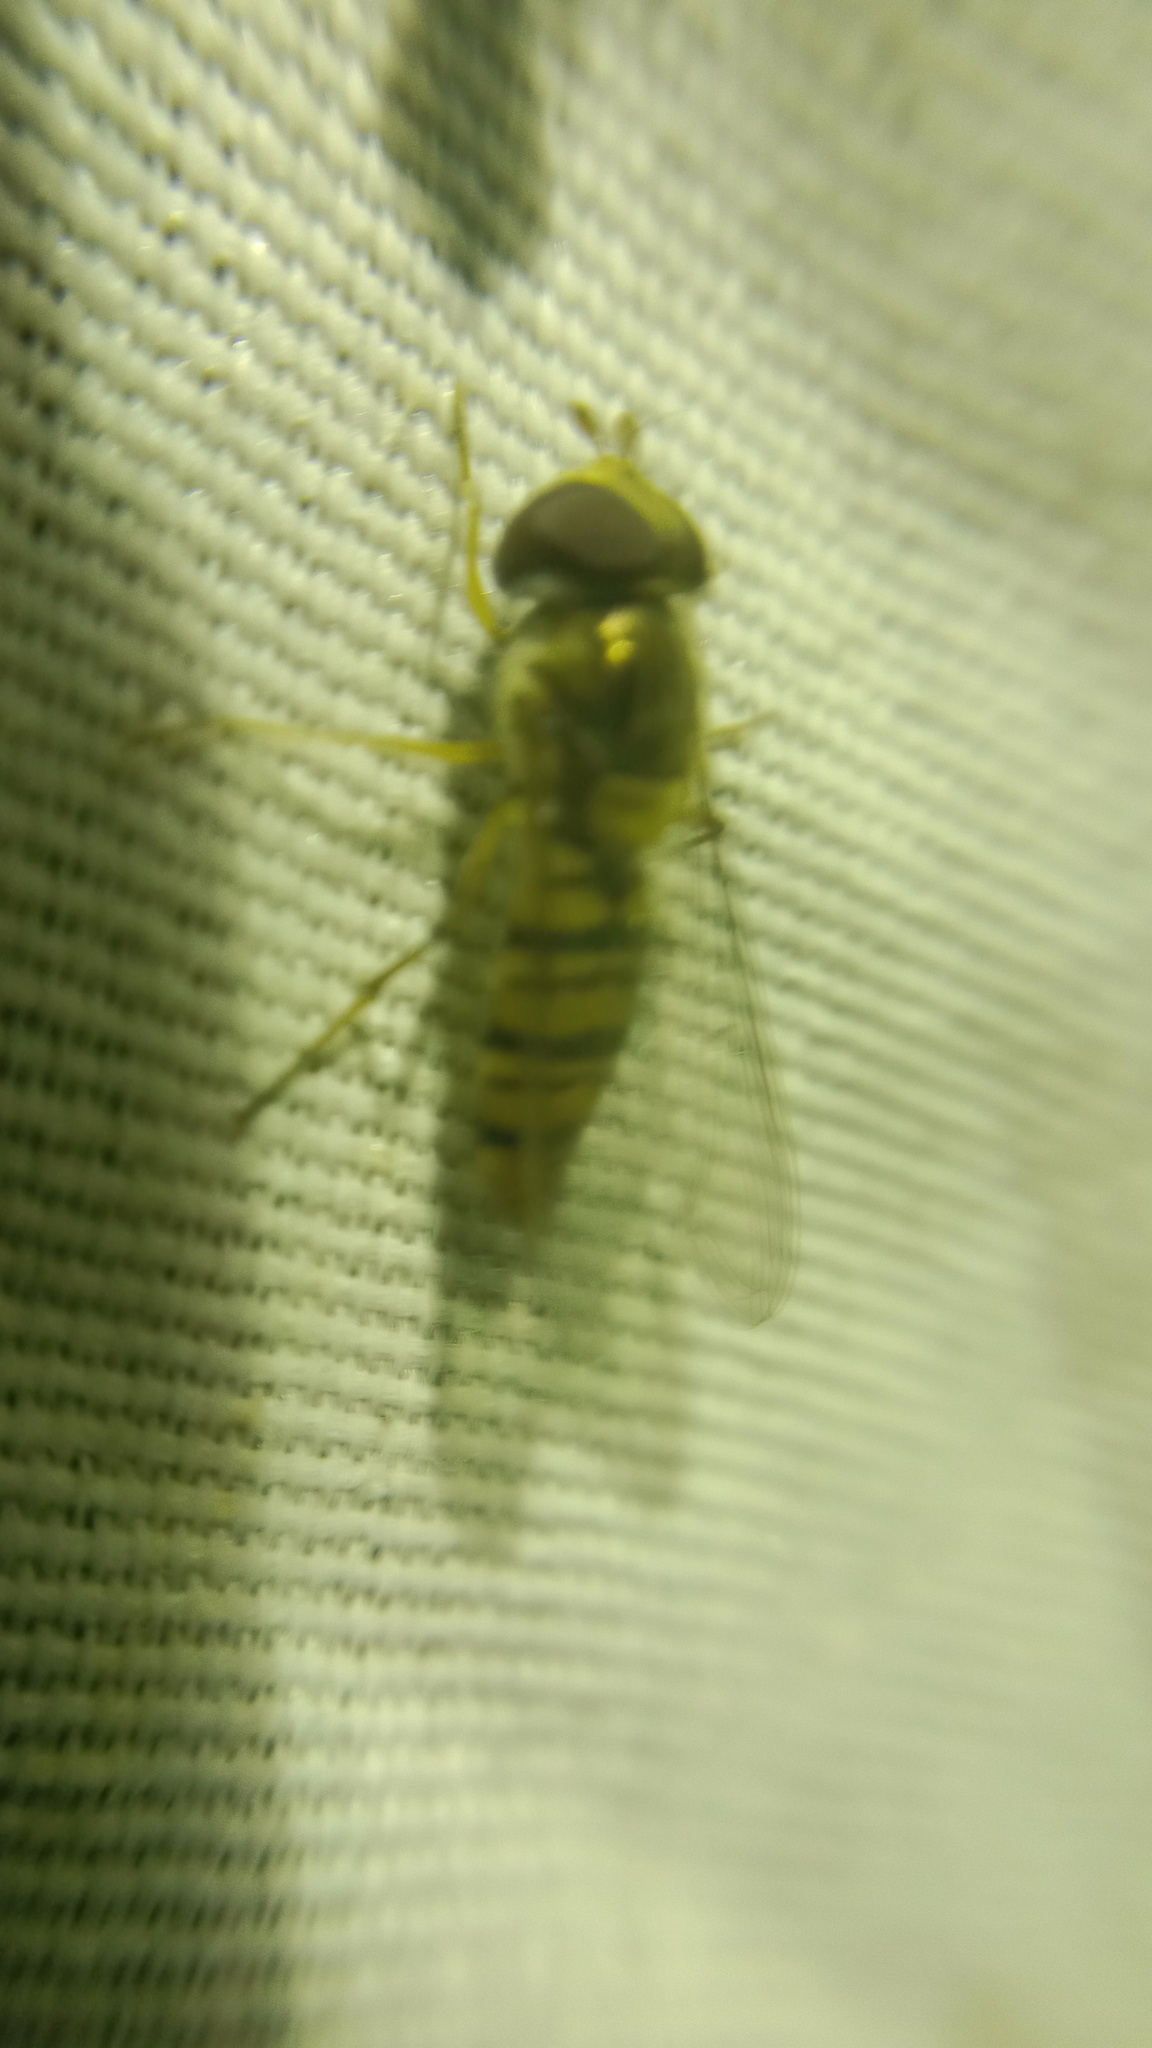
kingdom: Animalia
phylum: Arthropoda
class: Insecta
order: Diptera
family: Syrphidae
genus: Episyrphus
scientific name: Episyrphus balteatus
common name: Marmalade hoverfly
